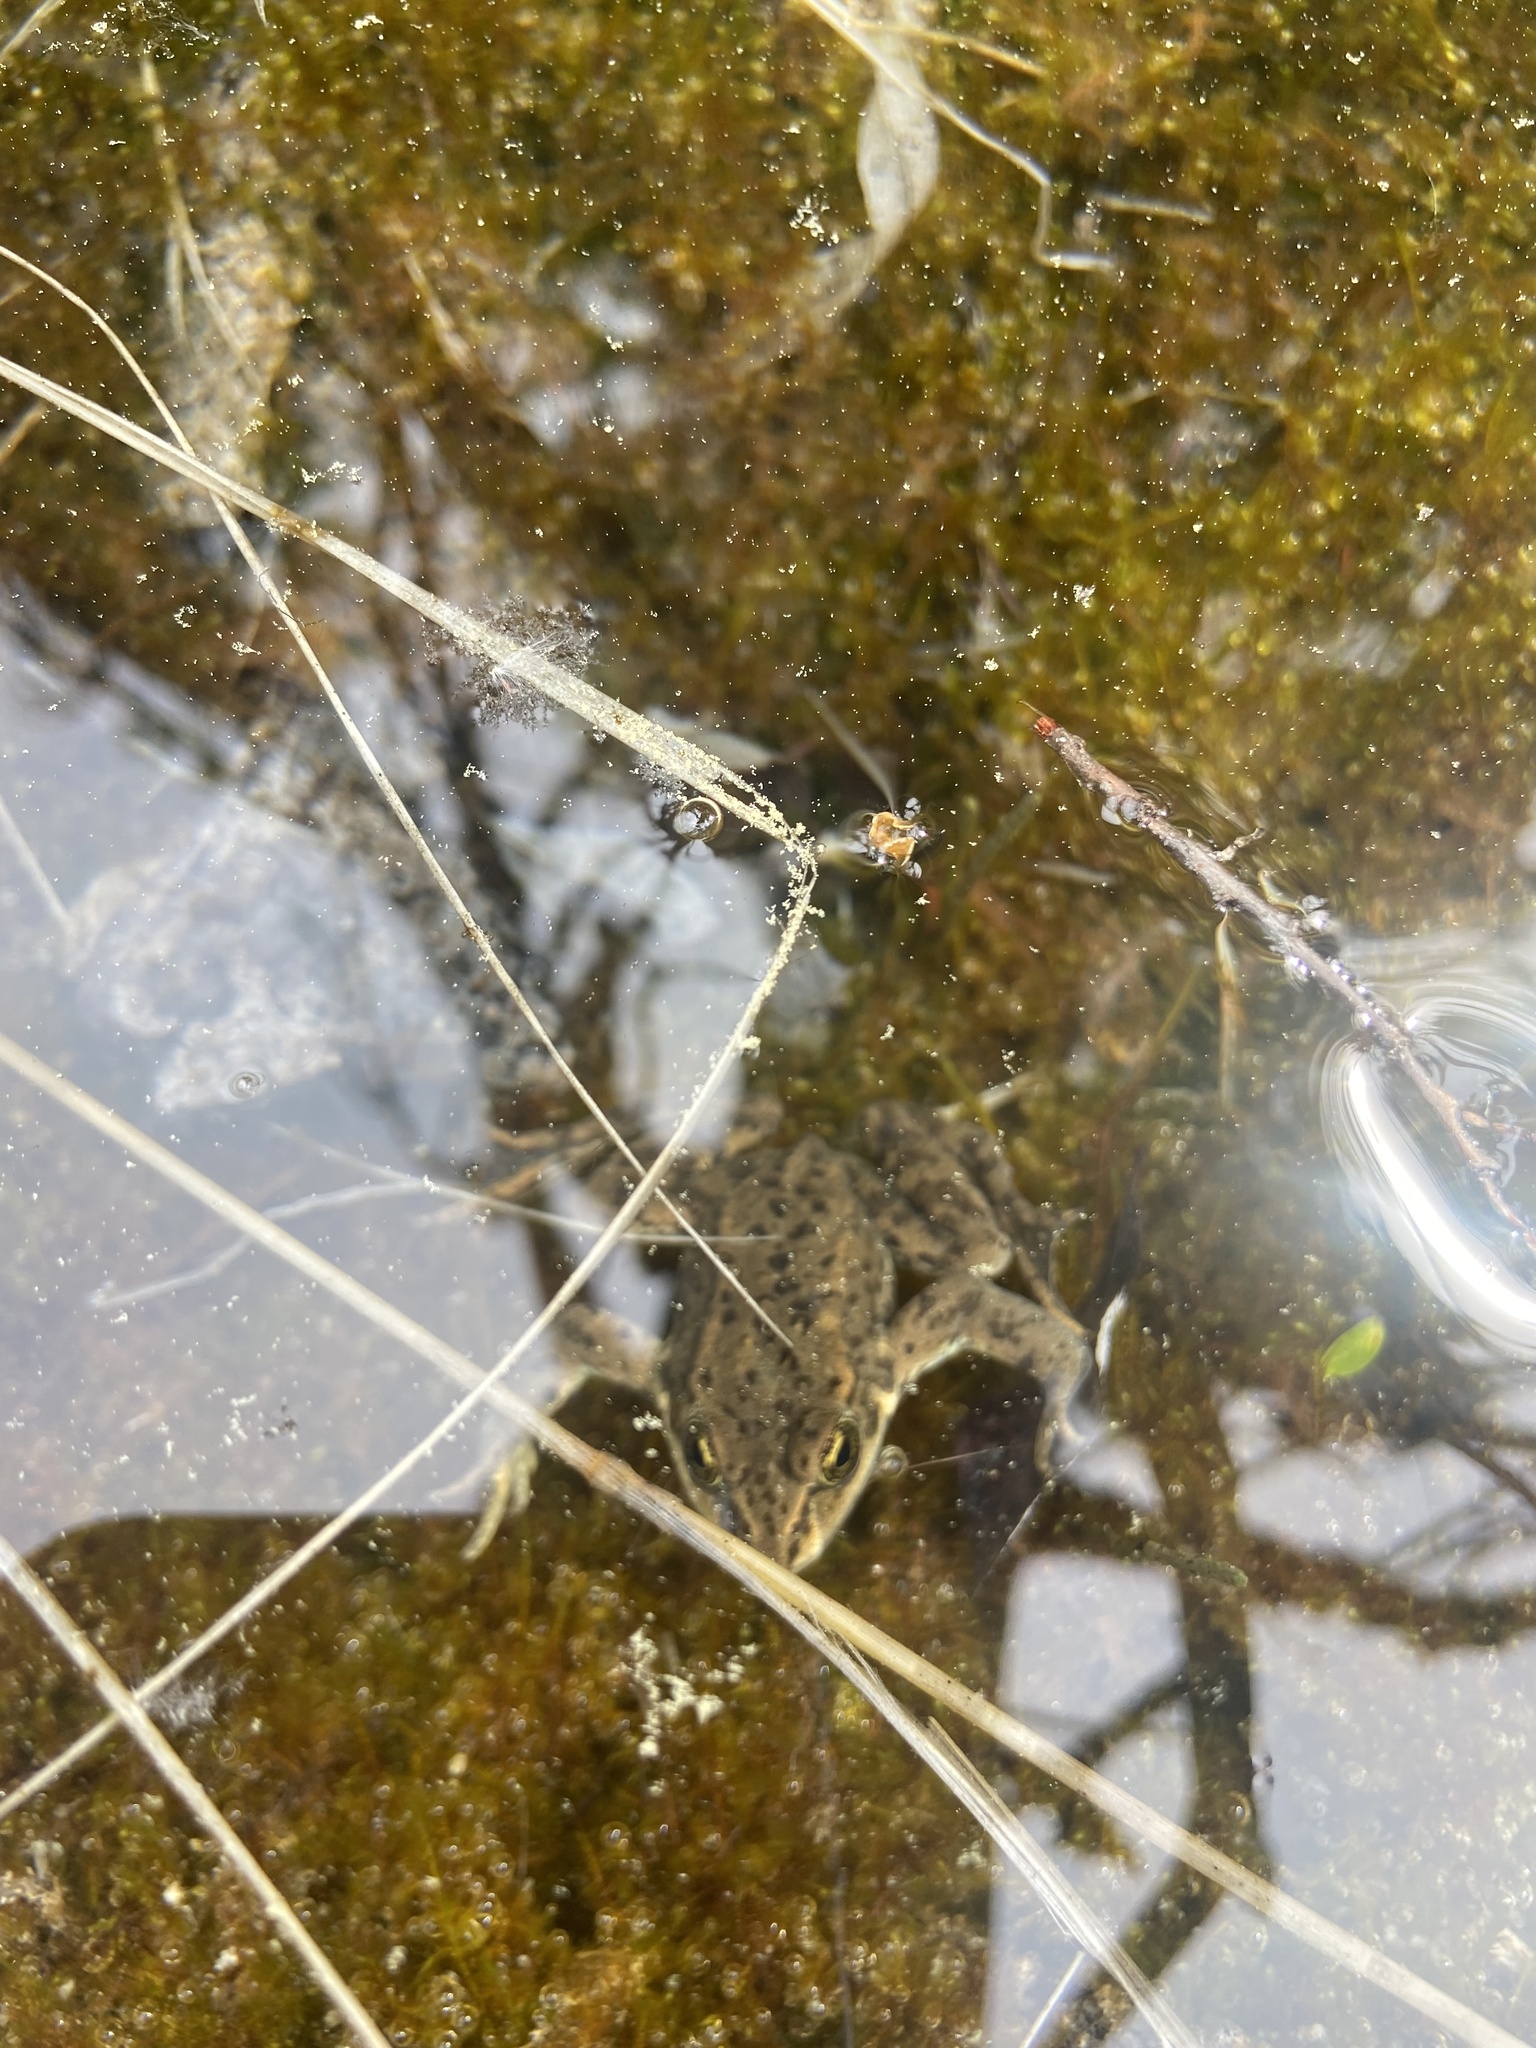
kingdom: Animalia
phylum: Chordata
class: Amphibia
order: Anura
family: Ranidae
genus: Rana
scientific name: Rana luteiventris
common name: Columbia spotted frog
